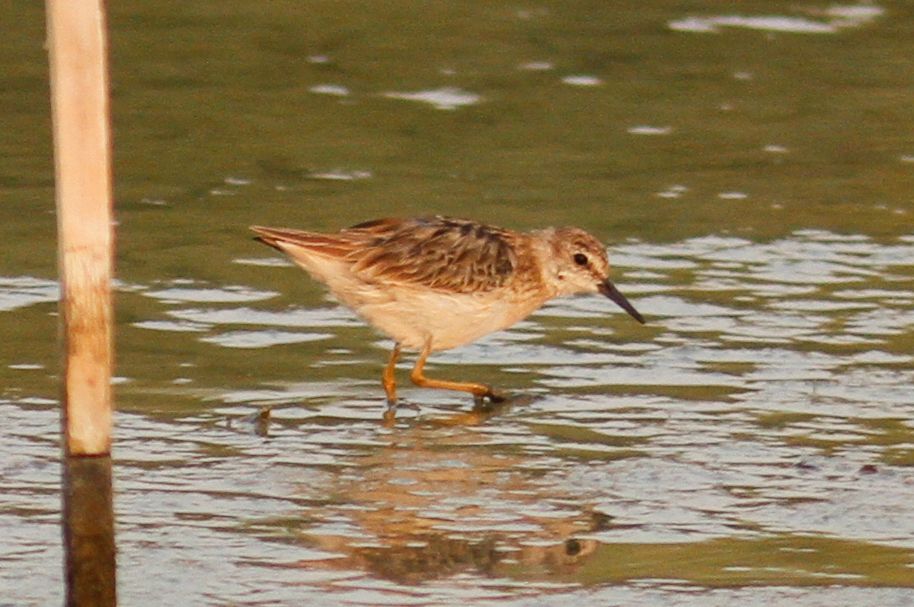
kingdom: Animalia
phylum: Chordata
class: Aves
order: Charadriiformes
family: Scolopacidae
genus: Calidris
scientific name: Calidris subminuta
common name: Long-toed stint
